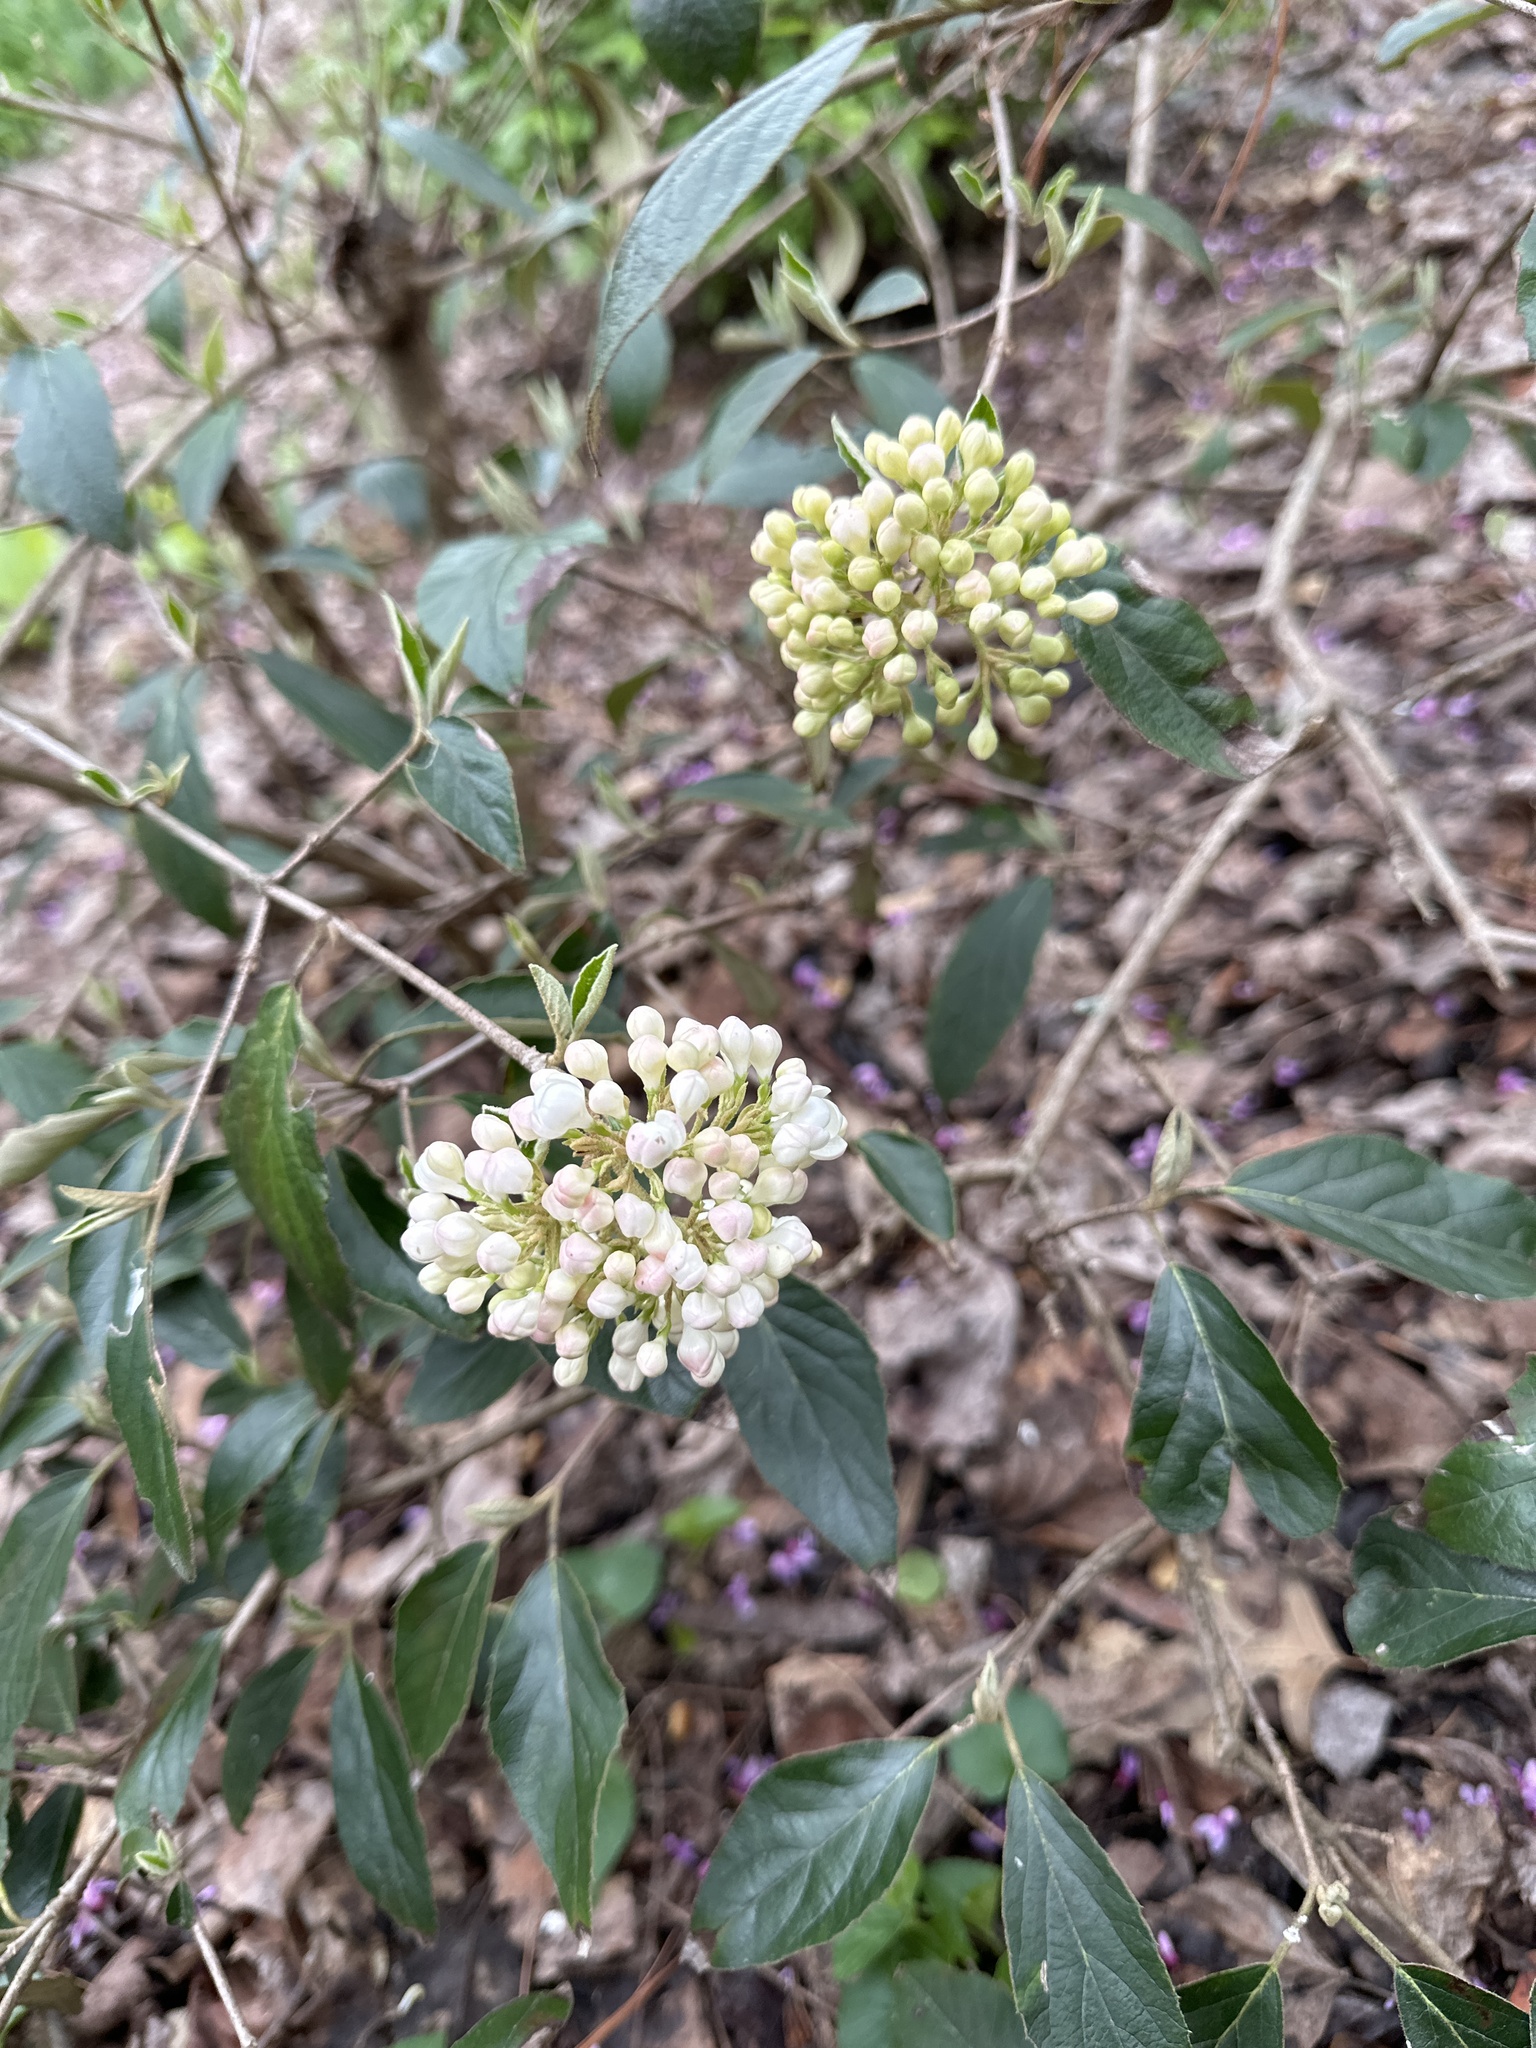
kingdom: Plantae
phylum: Tracheophyta
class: Magnoliopsida
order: Dipsacales
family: Viburnaceae
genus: Viburnum
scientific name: Viburnum carlesii
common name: Koreanspice viburnum
